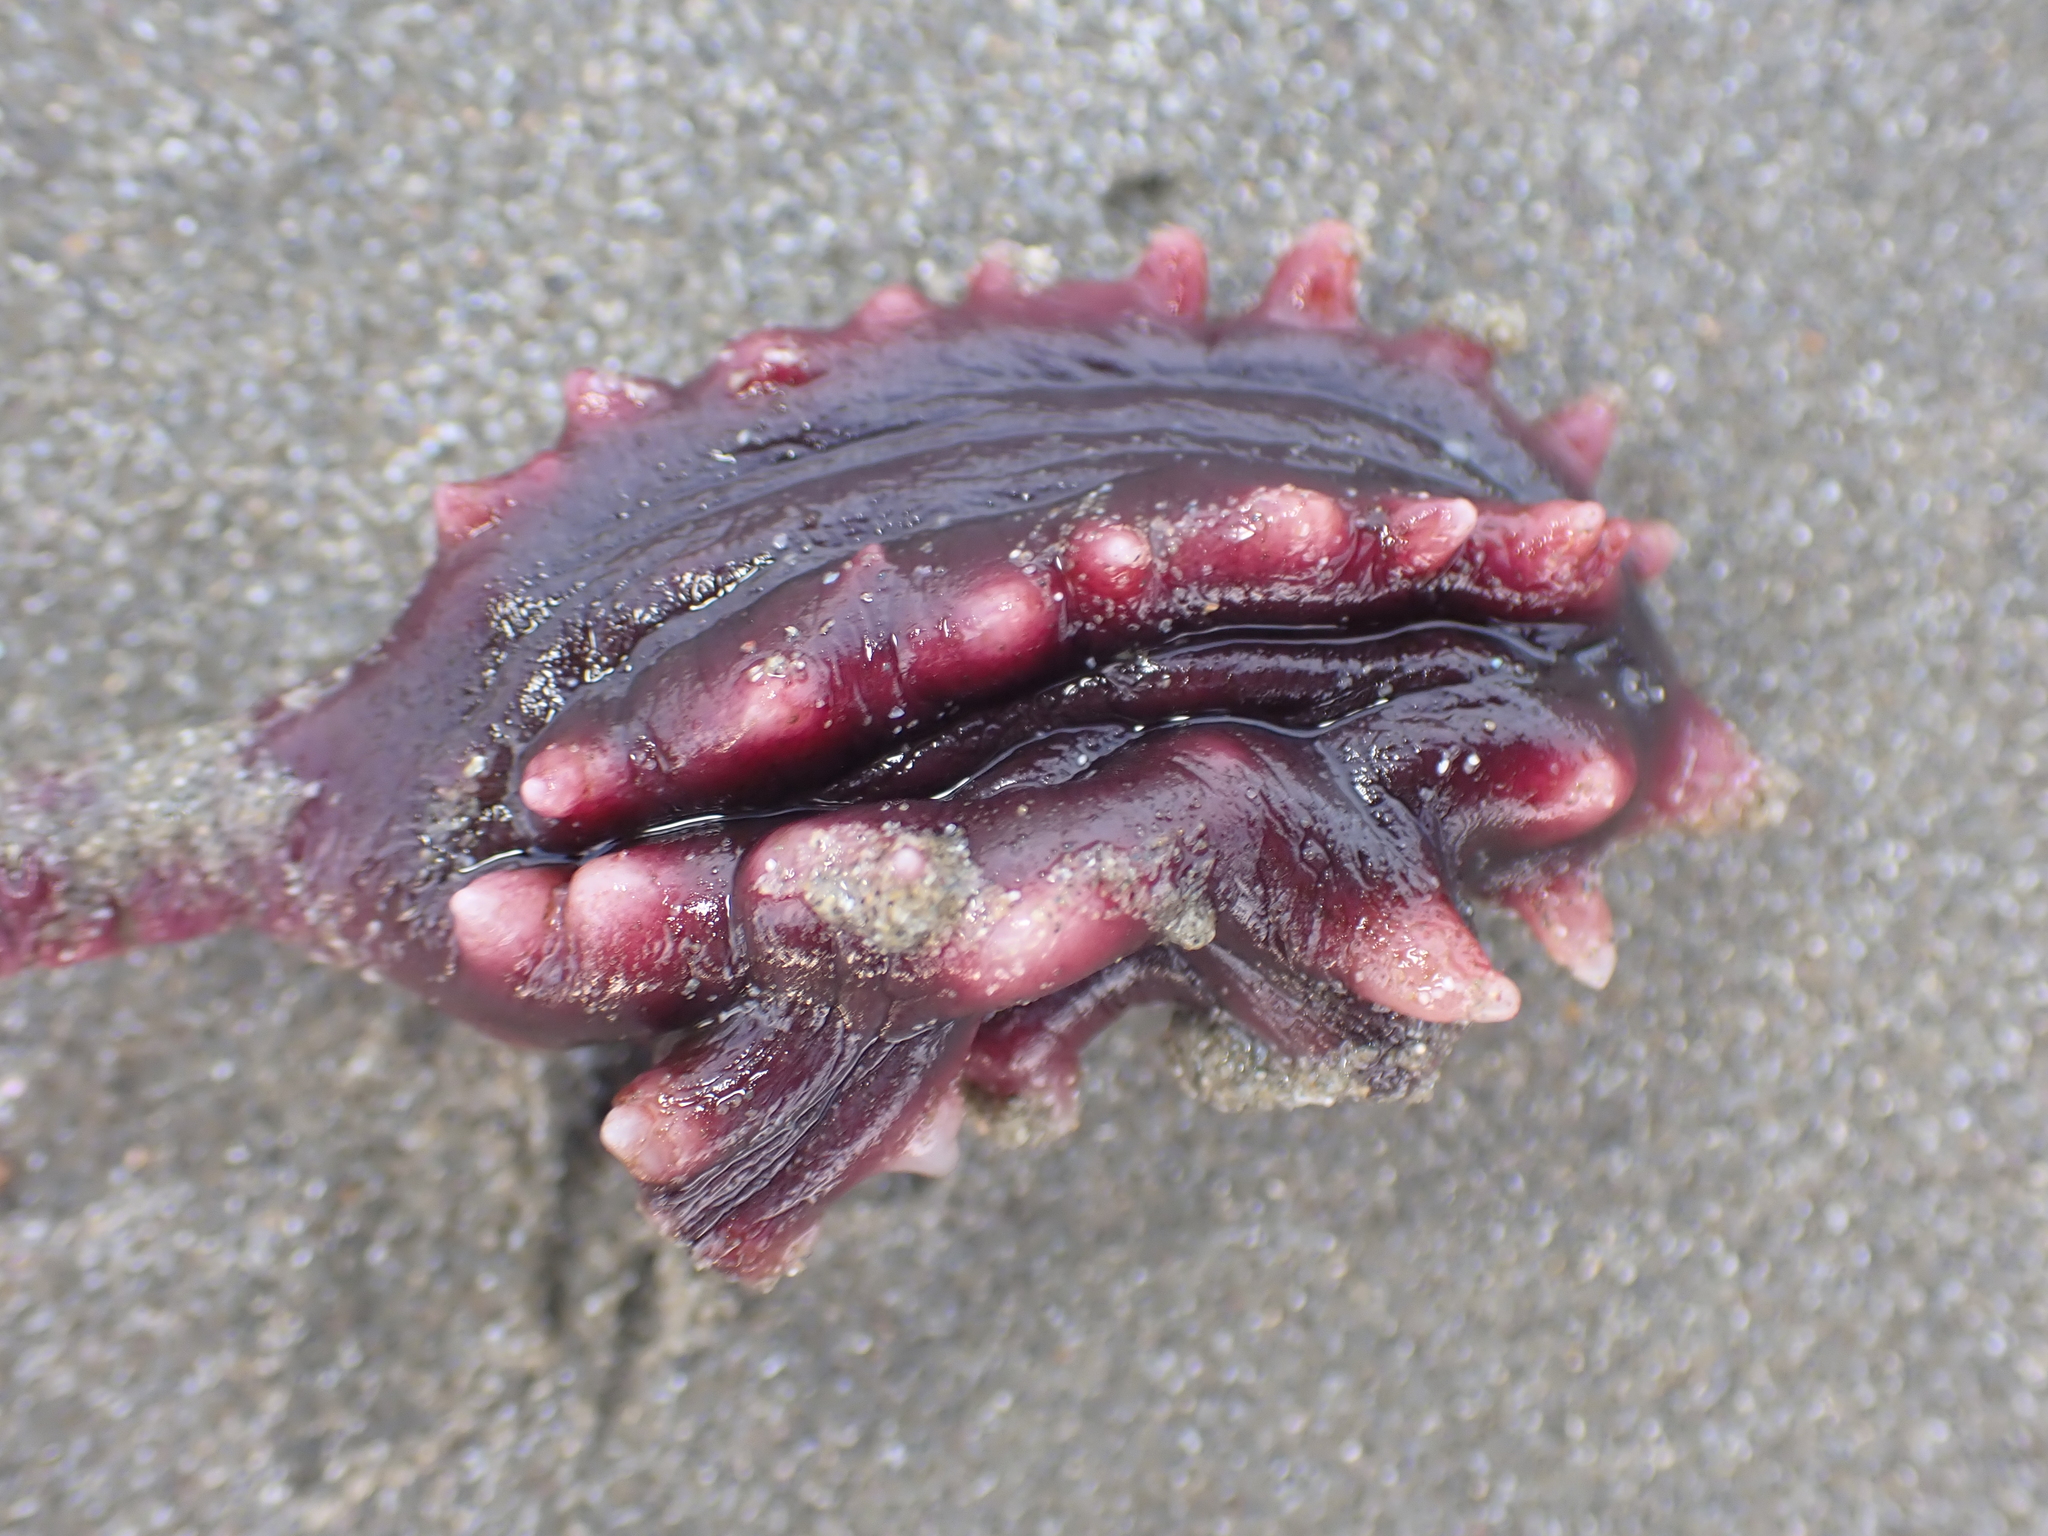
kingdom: Animalia
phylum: Chordata
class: Ascidiacea
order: Stolidobranchia
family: Pyuridae
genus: Pyura
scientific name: Pyura pachydermatina
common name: Sea tulip
